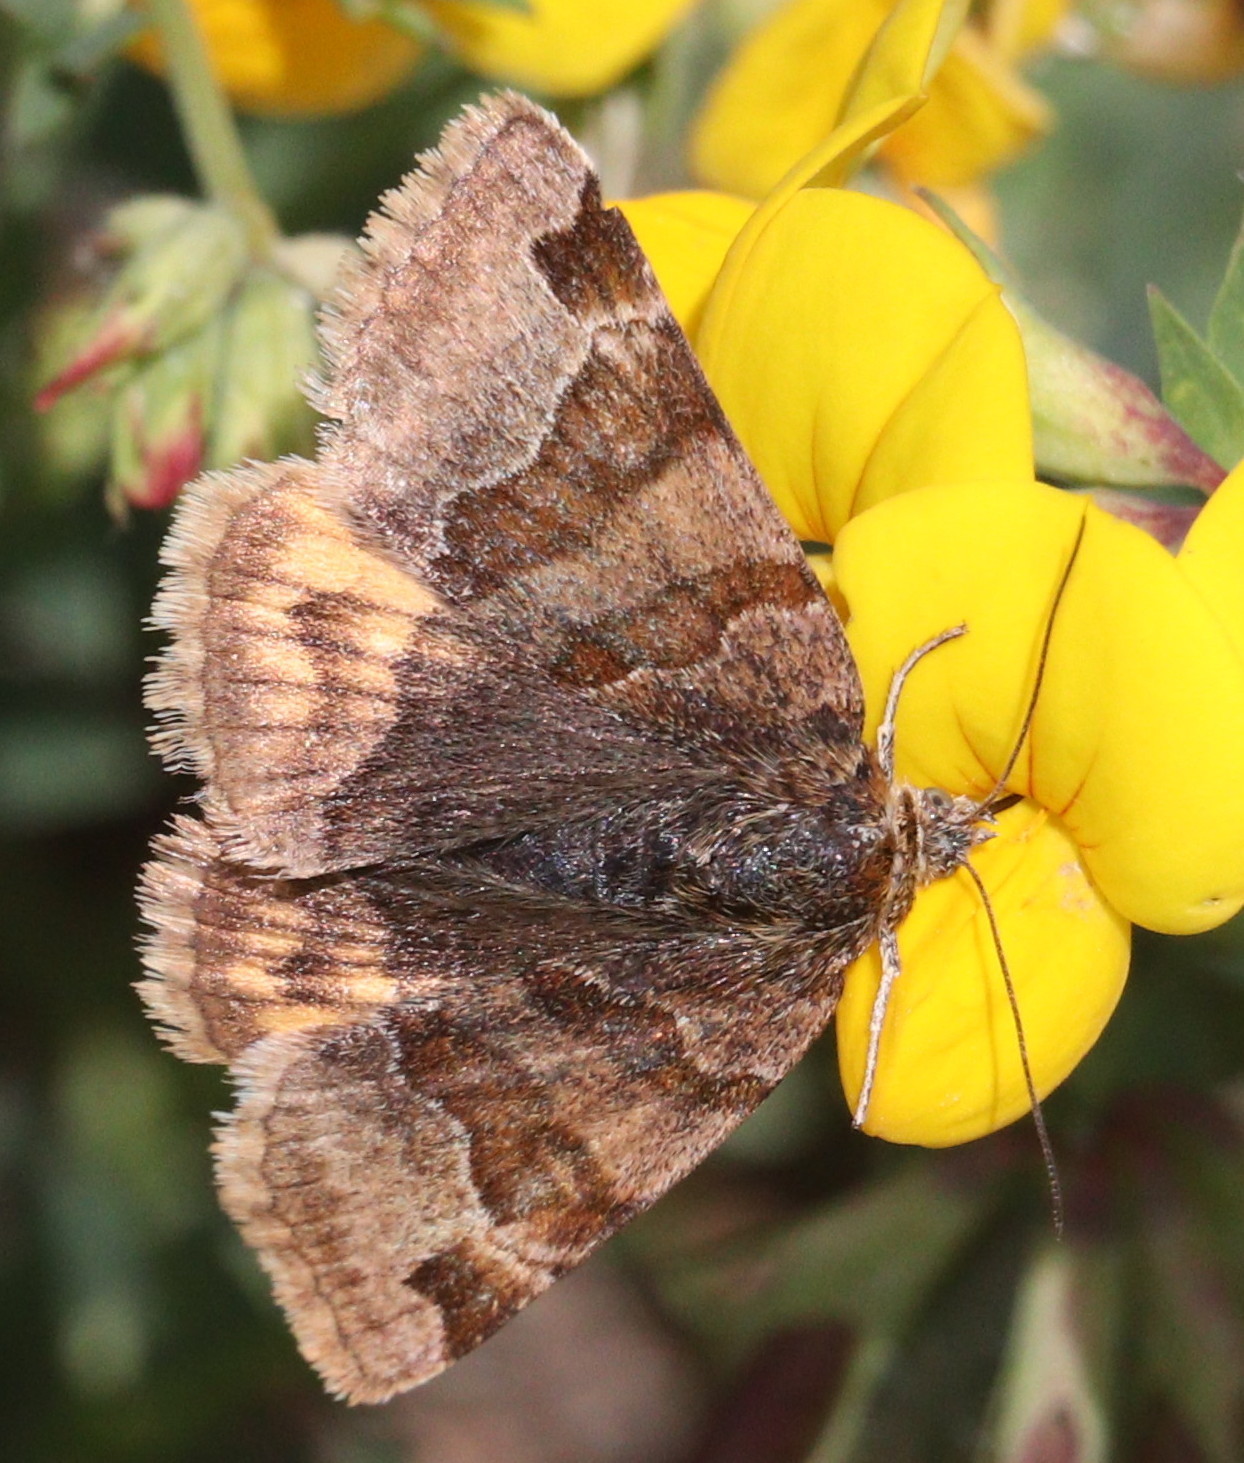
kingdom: Animalia
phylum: Arthropoda
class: Insecta
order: Lepidoptera
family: Erebidae
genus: Euclidia
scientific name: Euclidia glyphica
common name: Burnet companion
